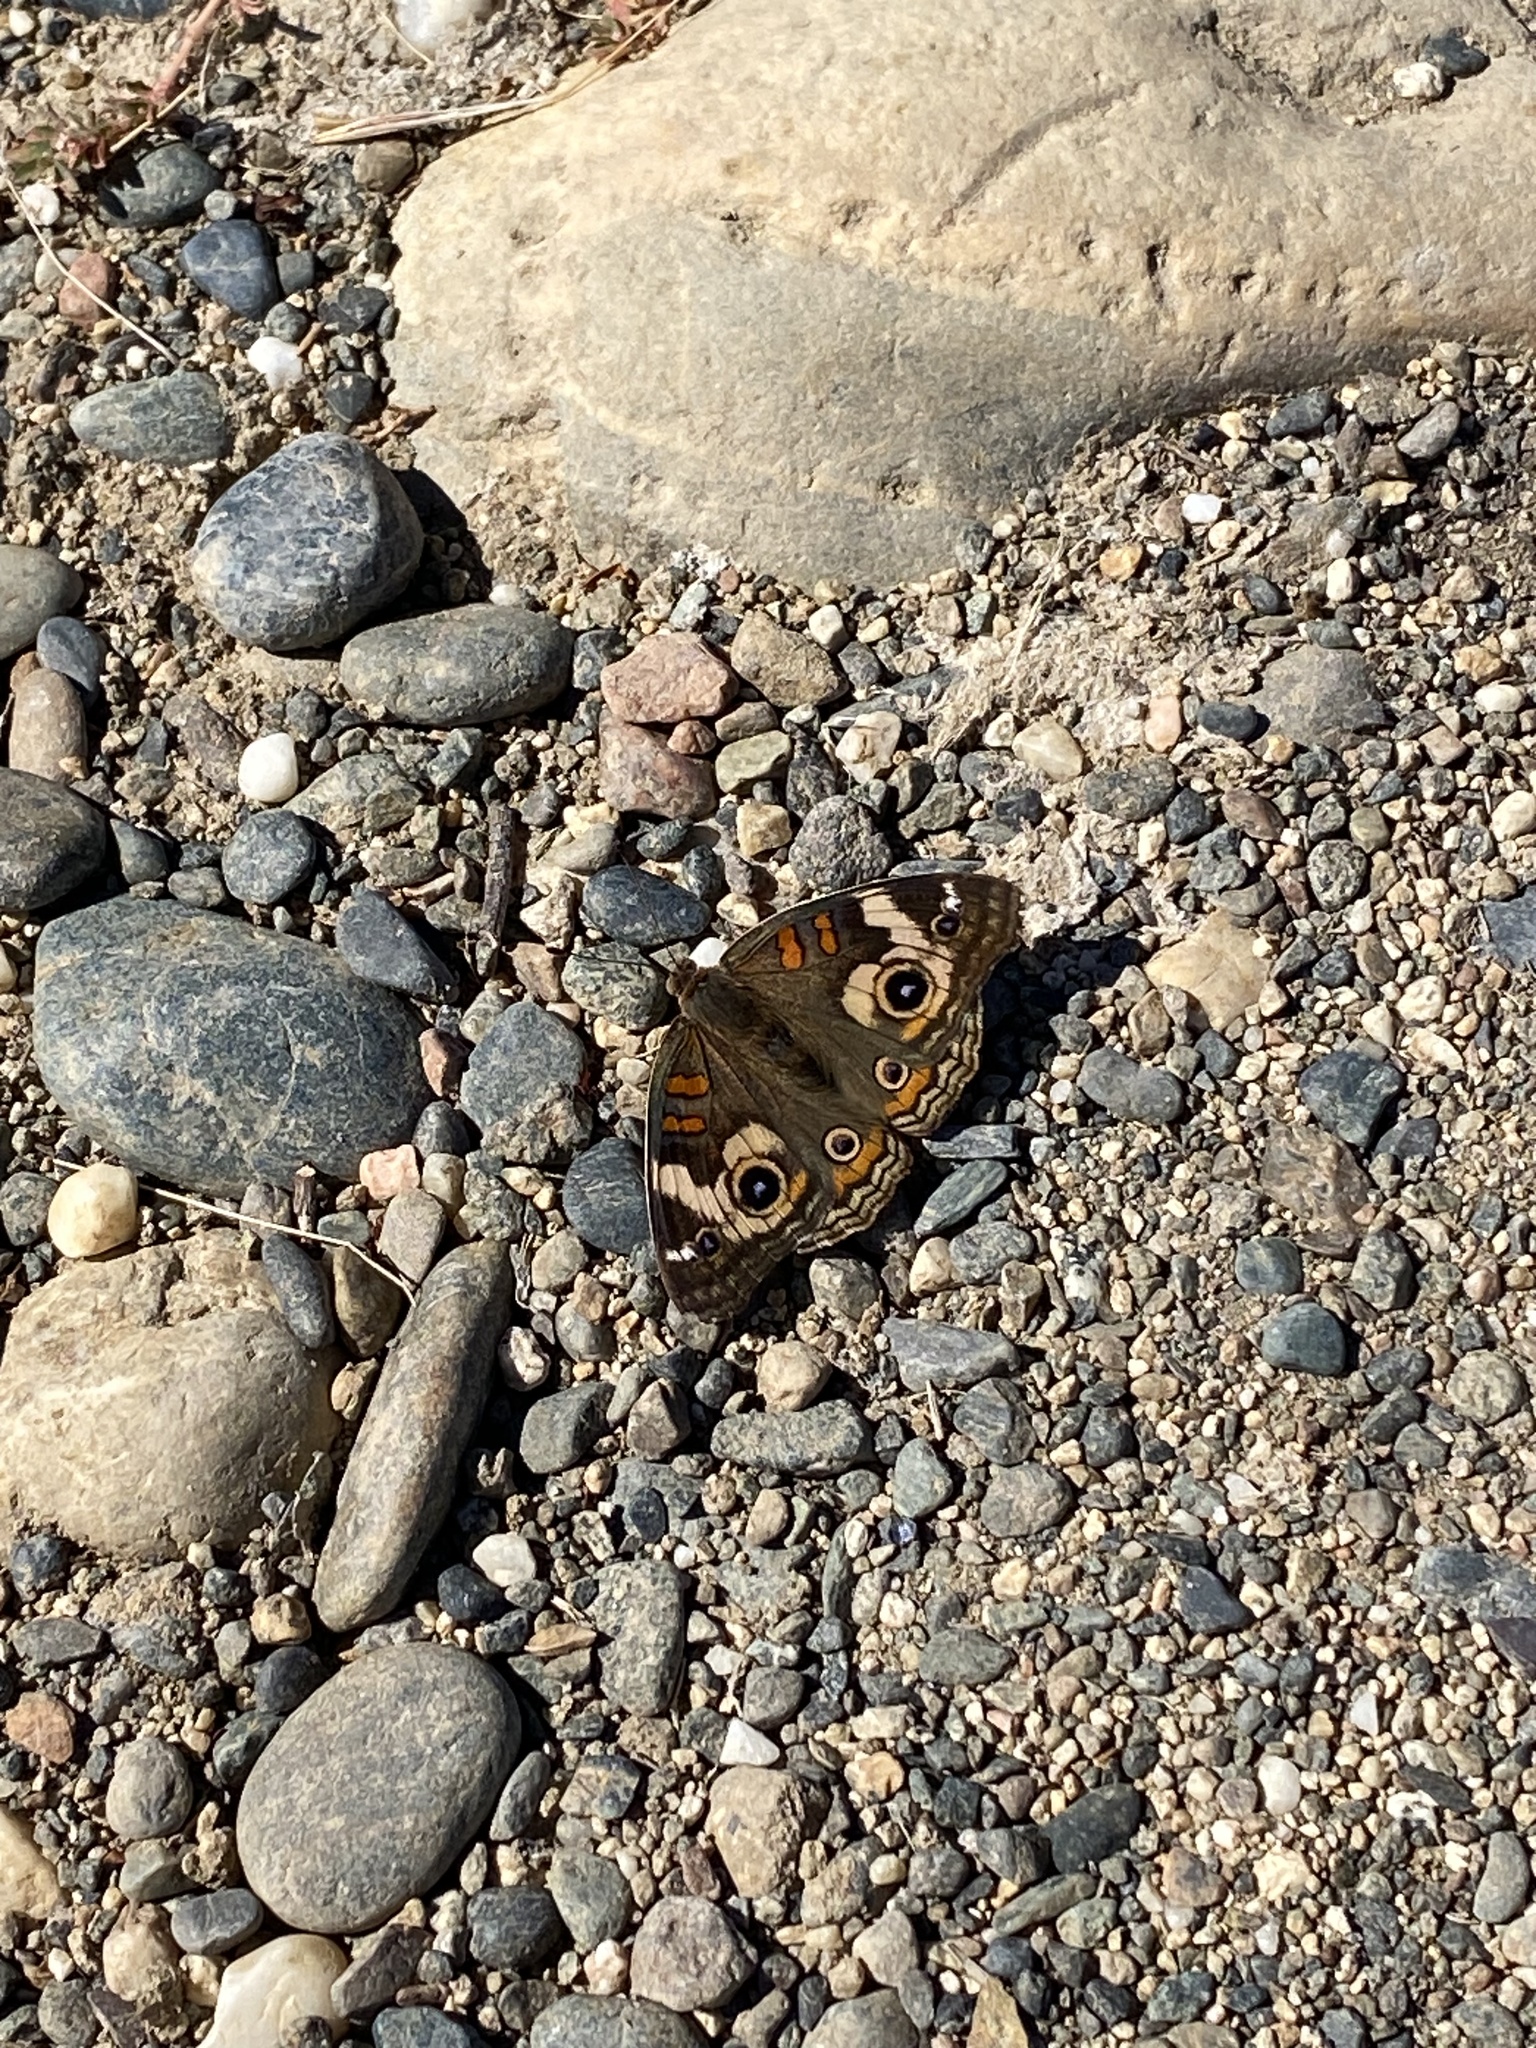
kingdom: Animalia
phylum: Arthropoda
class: Insecta
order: Lepidoptera
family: Nymphalidae
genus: Junonia
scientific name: Junonia grisea
